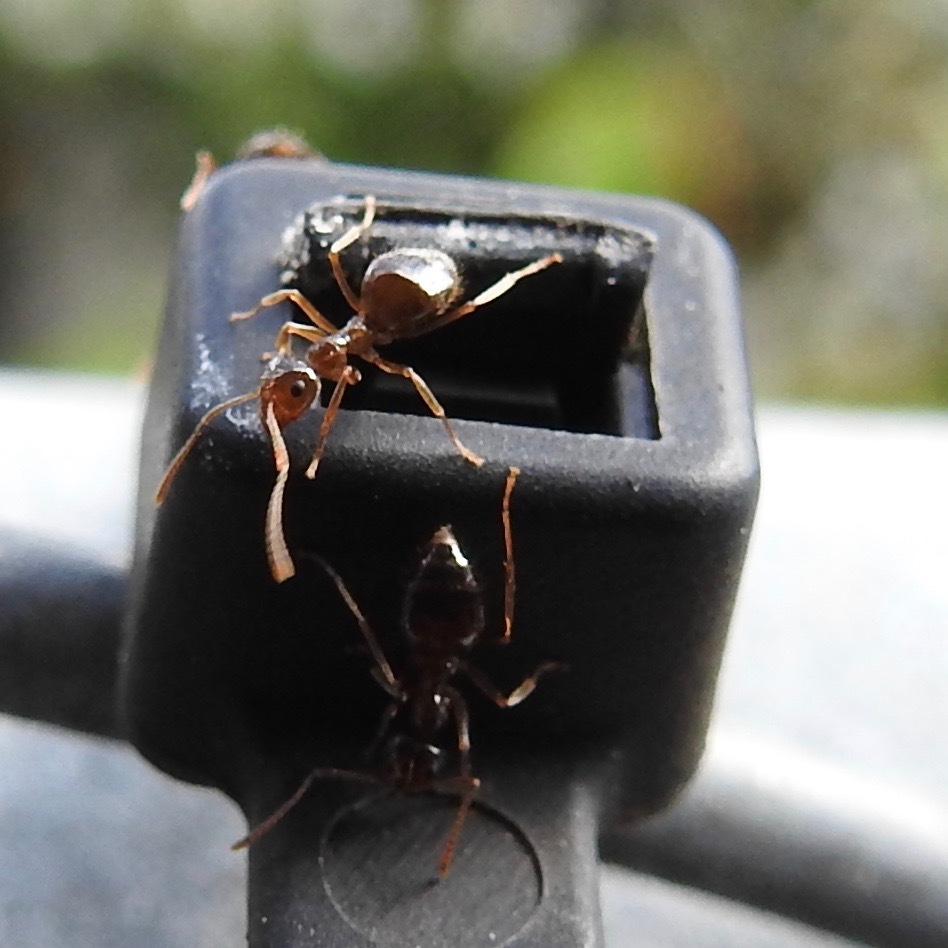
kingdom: Animalia
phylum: Arthropoda
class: Insecta
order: Hymenoptera
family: Formicidae
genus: Prenolepis
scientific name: Prenolepis imparis
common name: Small honey ant
